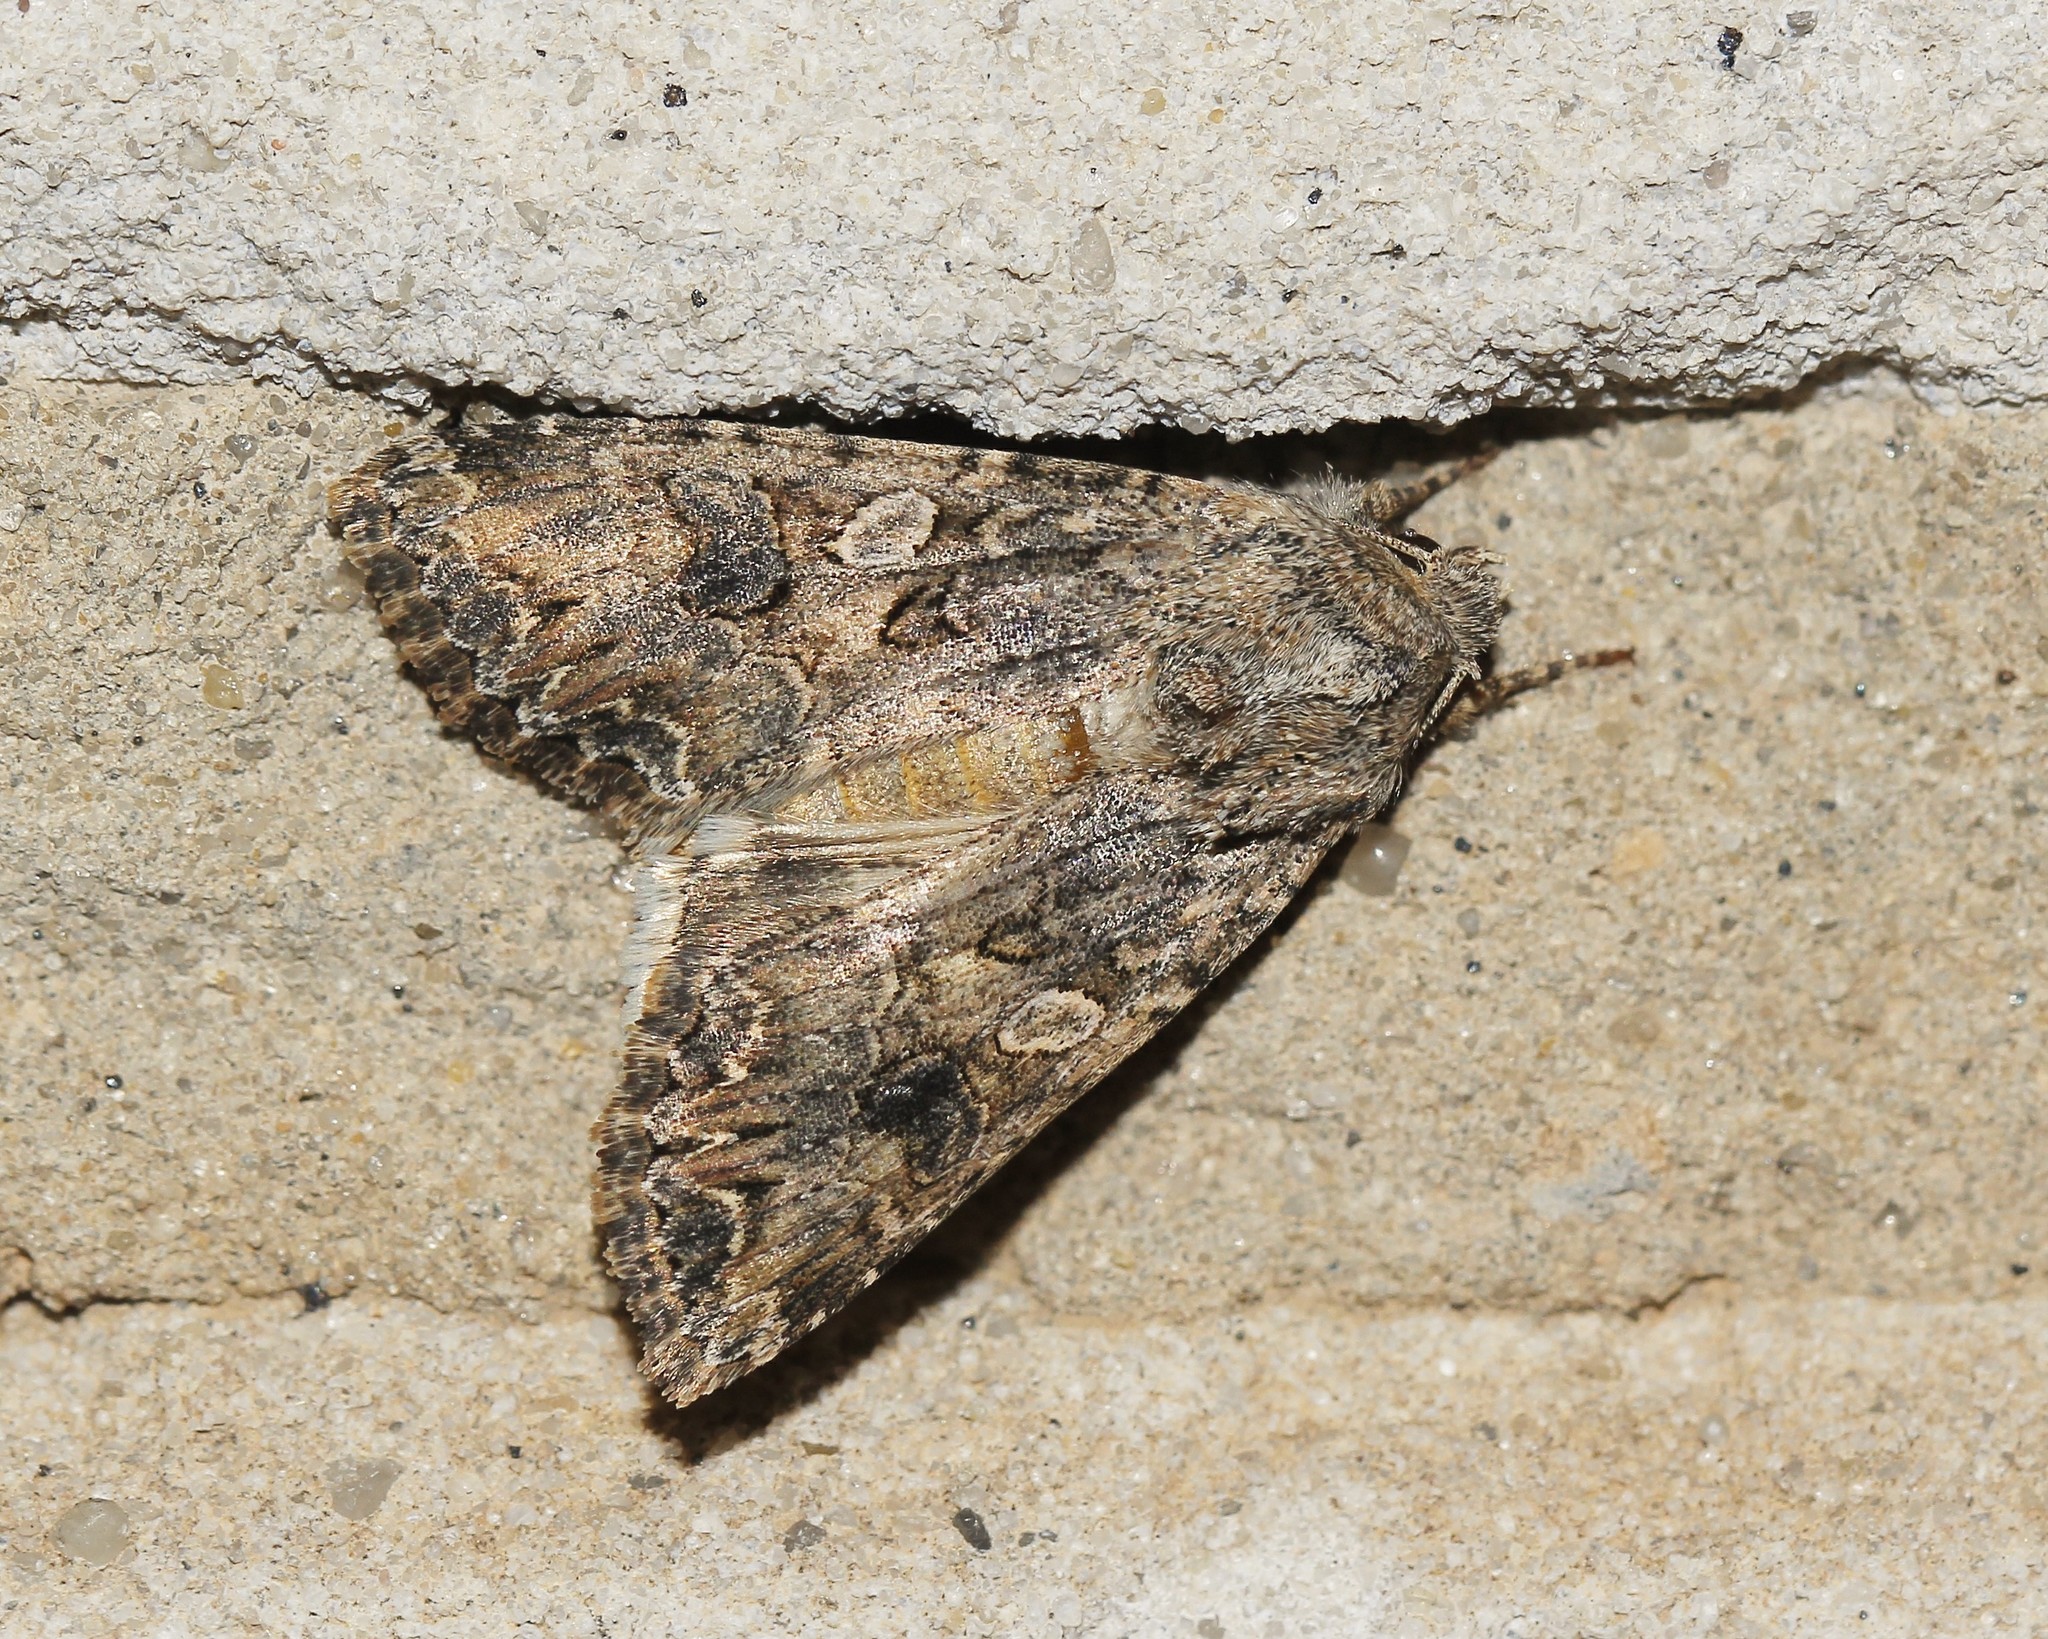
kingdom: Animalia
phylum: Arthropoda
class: Insecta
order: Lepidoptera
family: Noctuidae
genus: Anarta
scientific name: Anarta trifolii
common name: Clover cutworm moth
